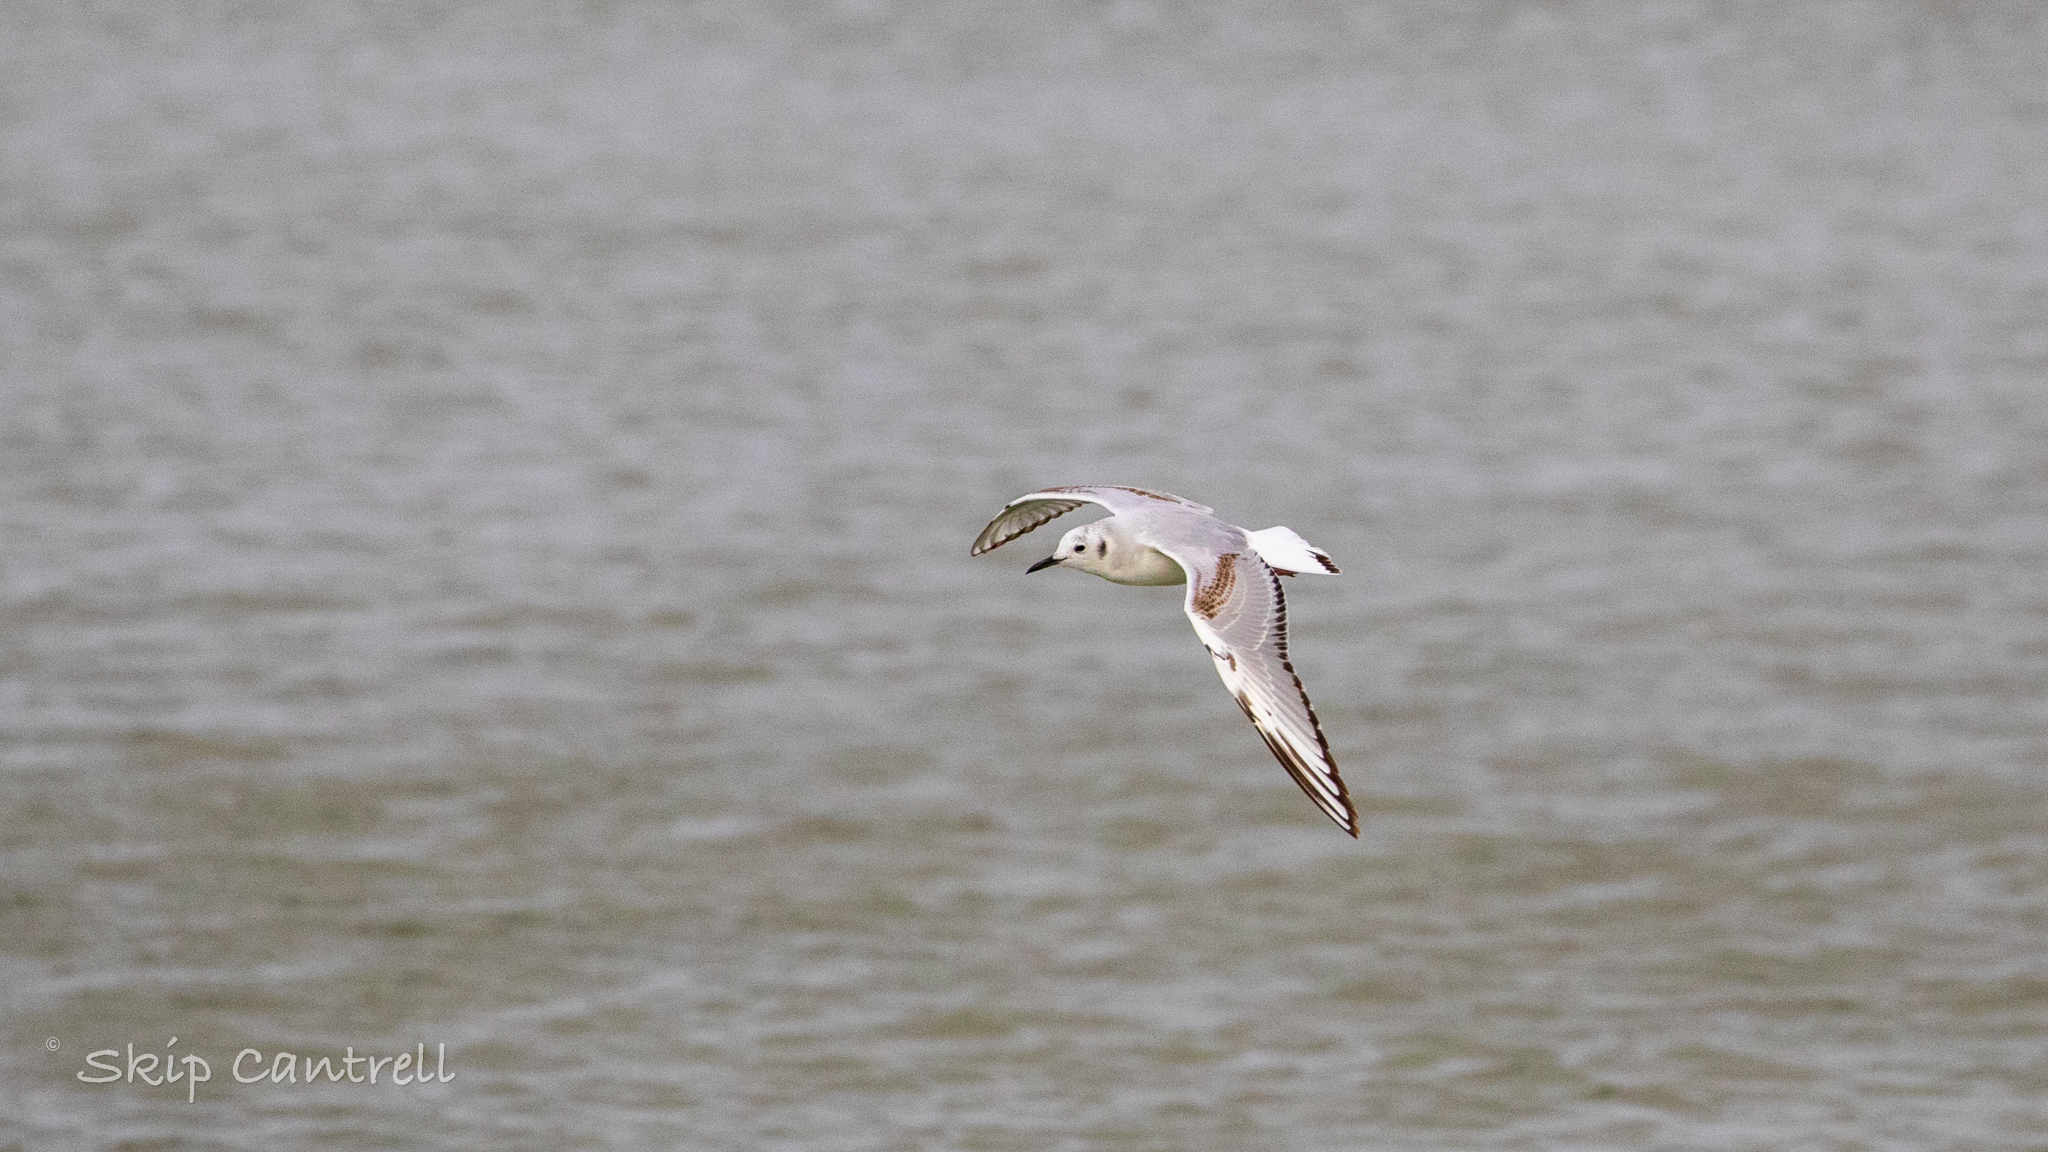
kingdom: Animalia
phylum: Chordata
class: Aves
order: Charadriiformes
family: Laridae
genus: Chroicocephalus
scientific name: Chroicocephalus philadelphia
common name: Bonaparte's gull
